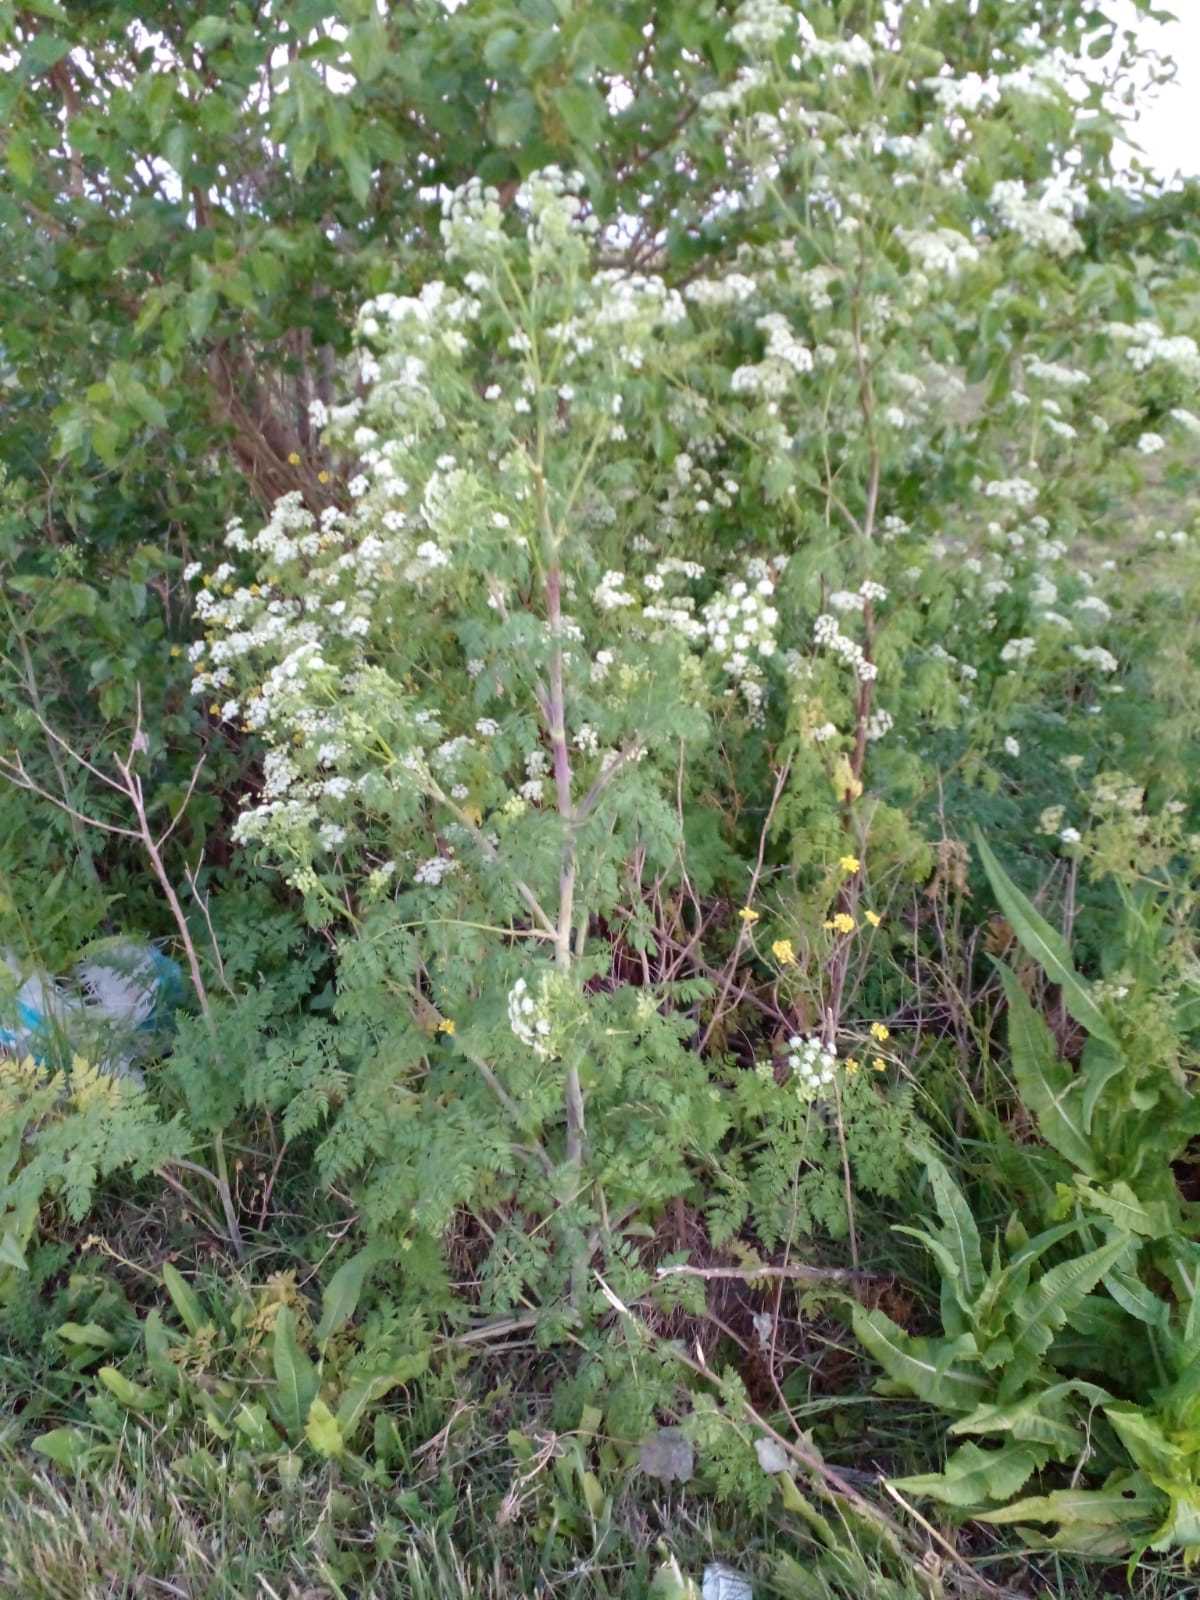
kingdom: Plantae
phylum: Tracheophyta
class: Magnoliopsida
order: Apiales
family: Apiaceae
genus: Conium
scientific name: Conium maculatum
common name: Hemlock
